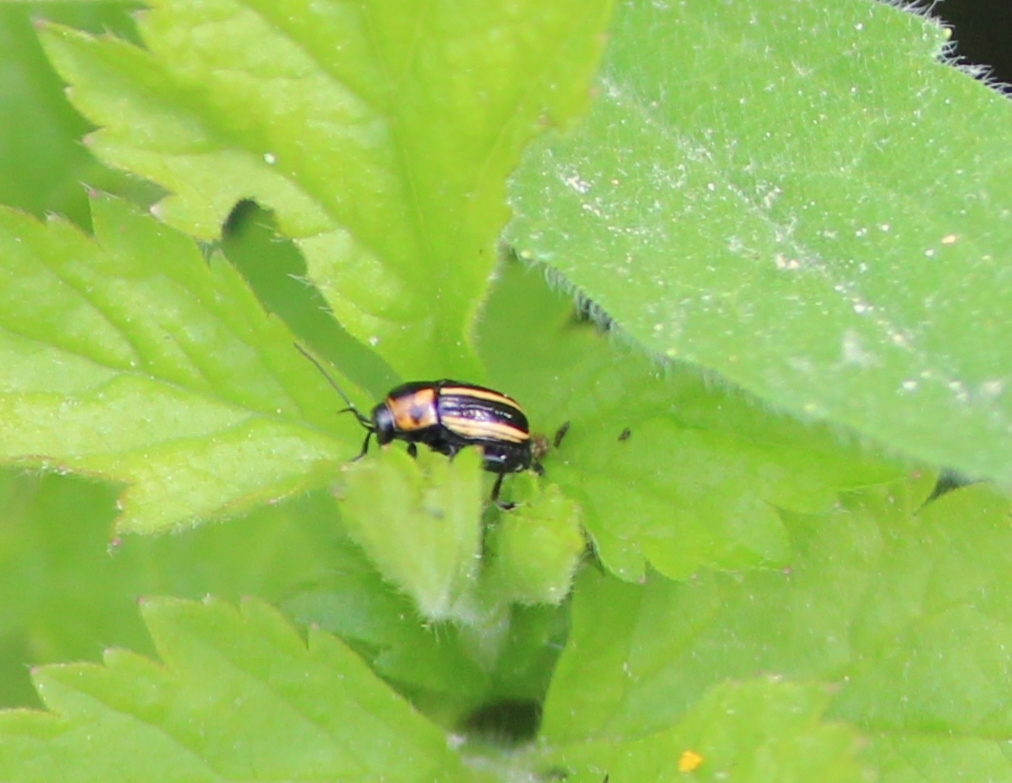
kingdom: Animalia
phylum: Arthropoda
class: Insecta
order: Coleoptera
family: Chrysomelidae
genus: Bassareus
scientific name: Bassareus lituratus
